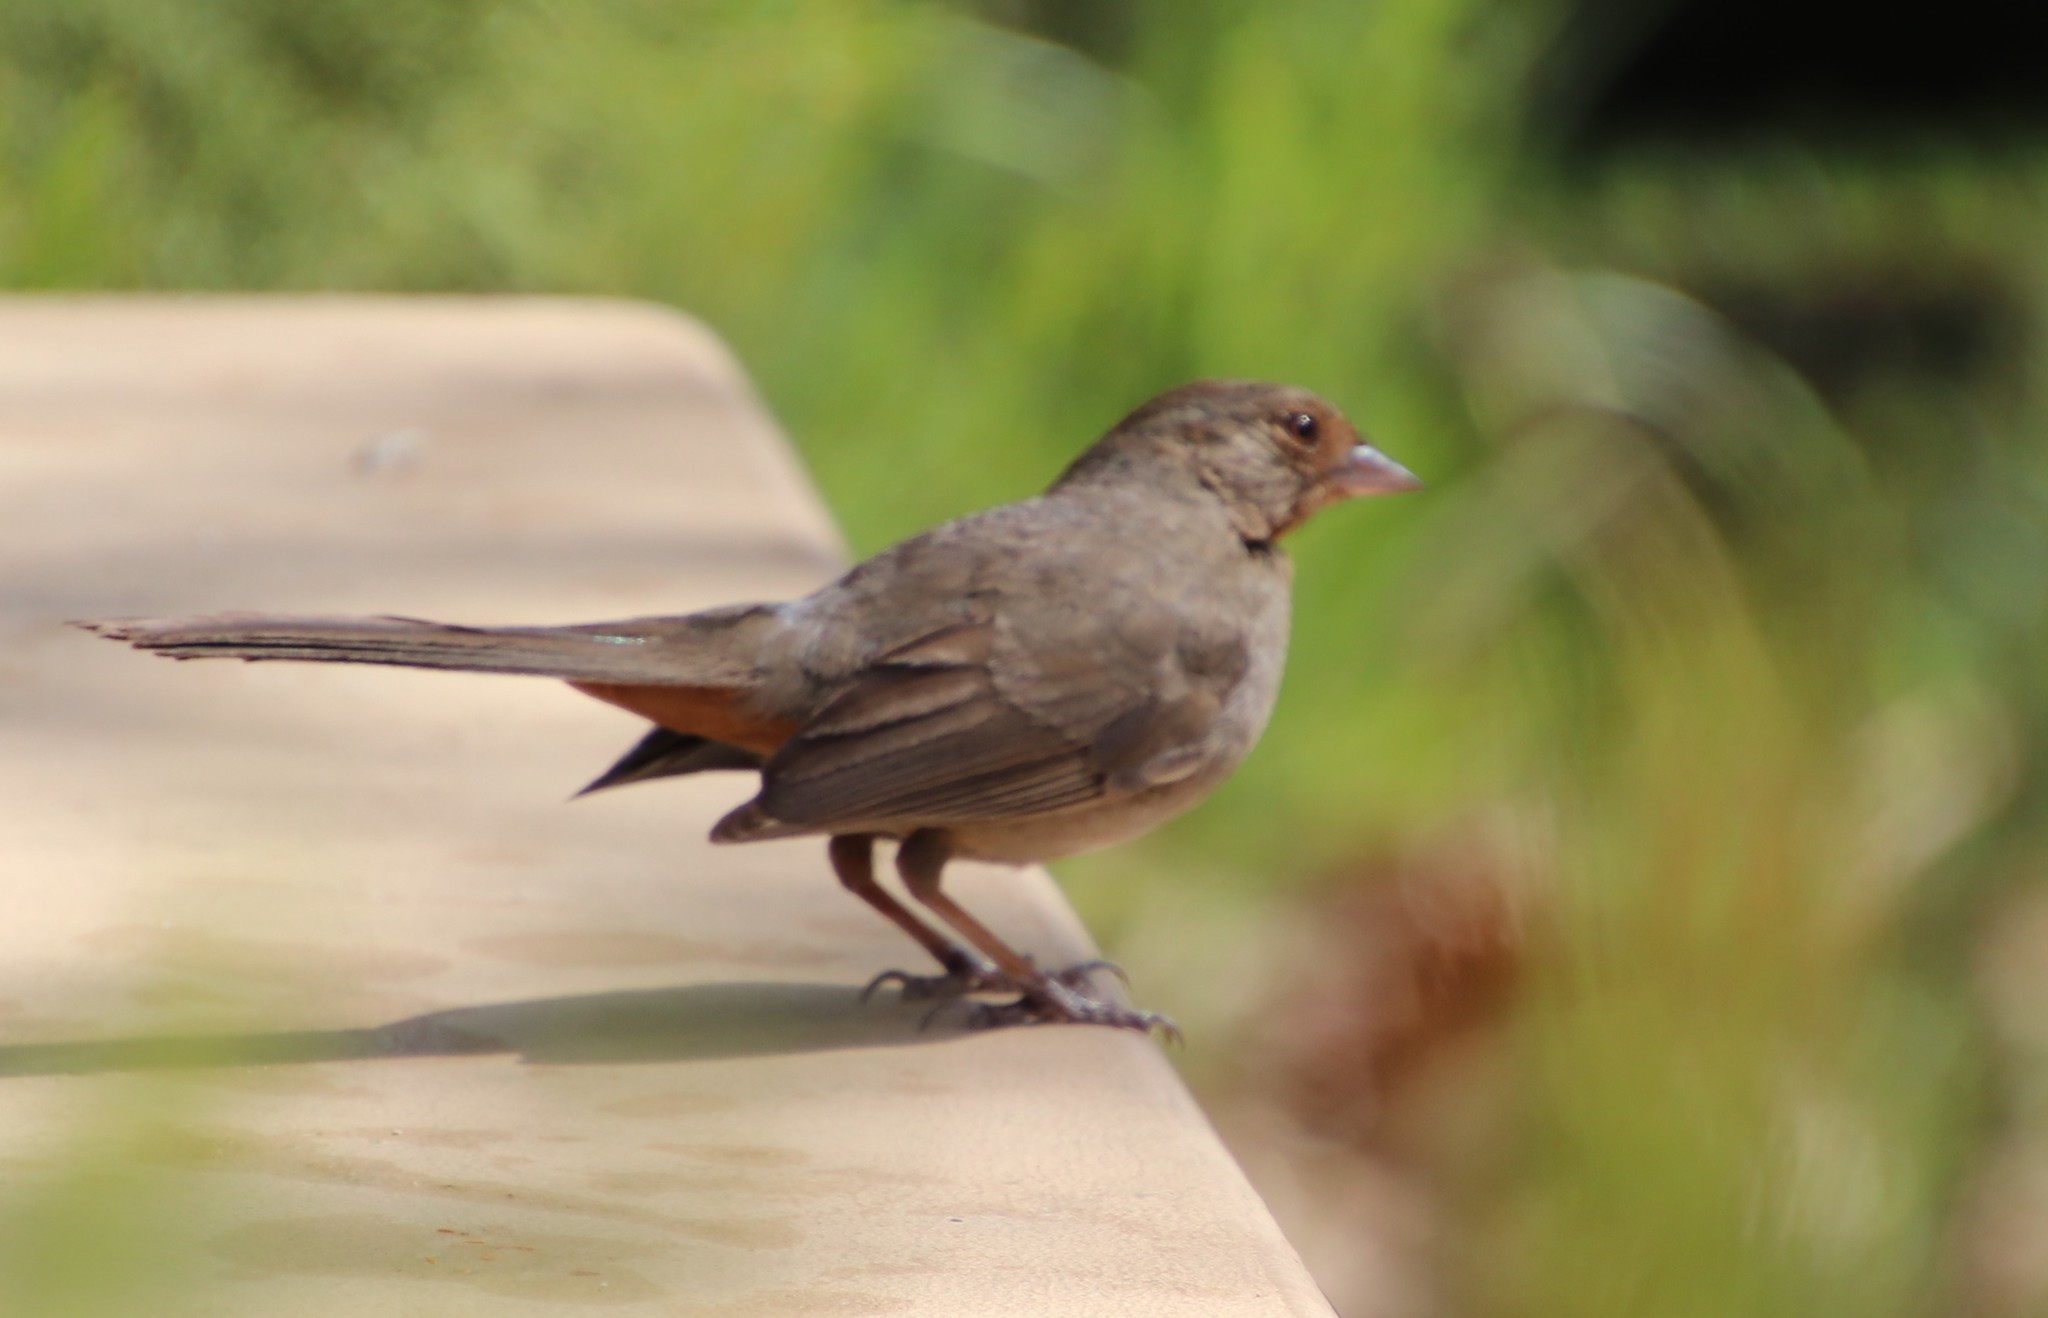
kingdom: Animalia
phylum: Chordata
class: Aves
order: Passeriformes
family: Passerellidae
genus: Melozone
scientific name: Melozone crissalis
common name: California towhee
